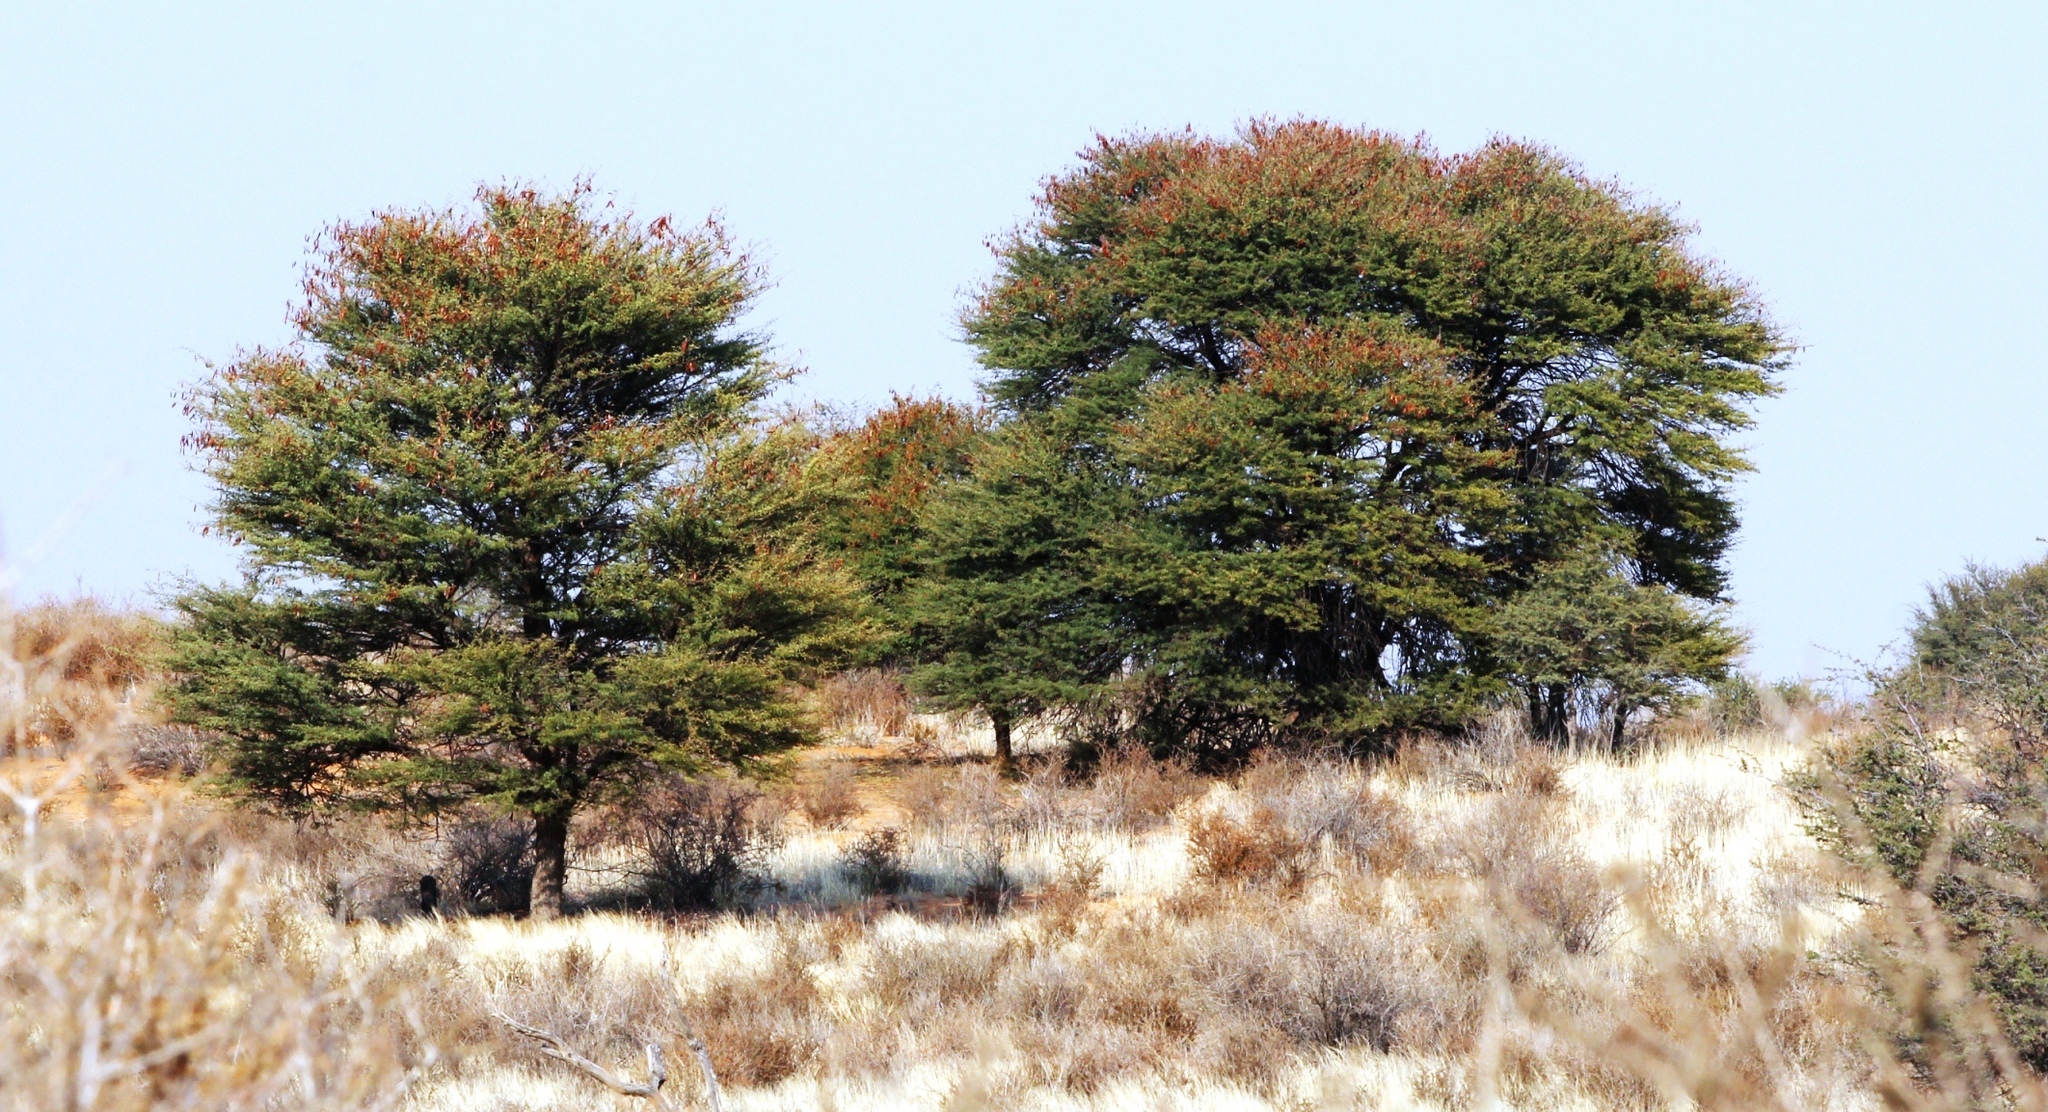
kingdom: Plantae
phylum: Tracheophyta
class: Magnoliopsida
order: Fabales
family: Fabaceae
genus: Vachellia
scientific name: Vachellia luederitzii
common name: Bastard umbrella thorn
